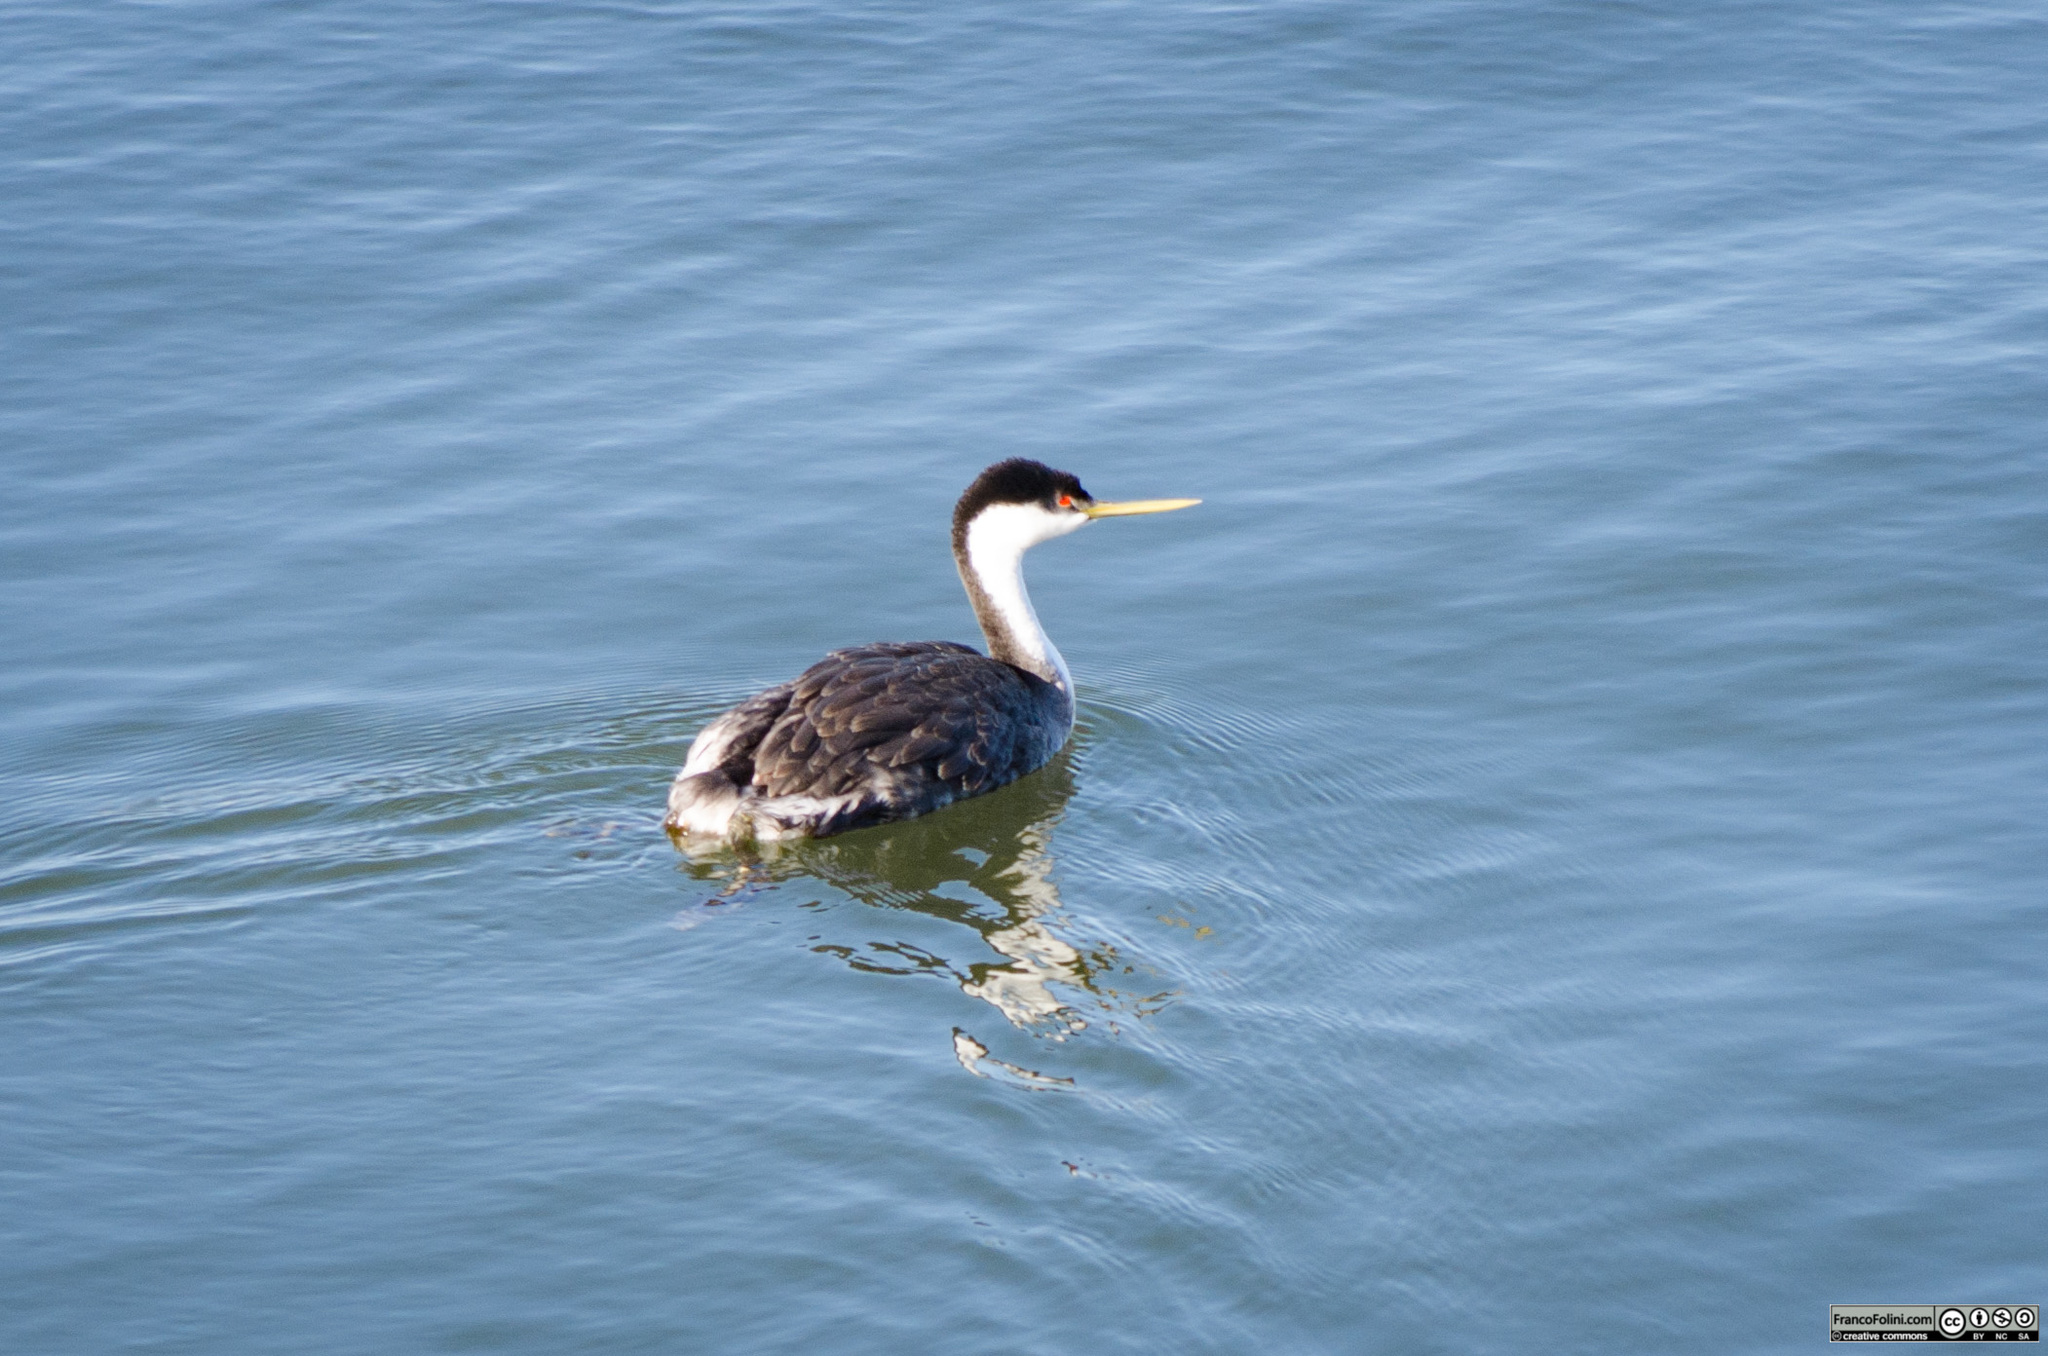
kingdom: Animalia
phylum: Chordata
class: Aves
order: Podicipediformes
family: Podicipedidae
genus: Aechmophorus
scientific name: Aechmophorus occidentalis
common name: Western grebe
